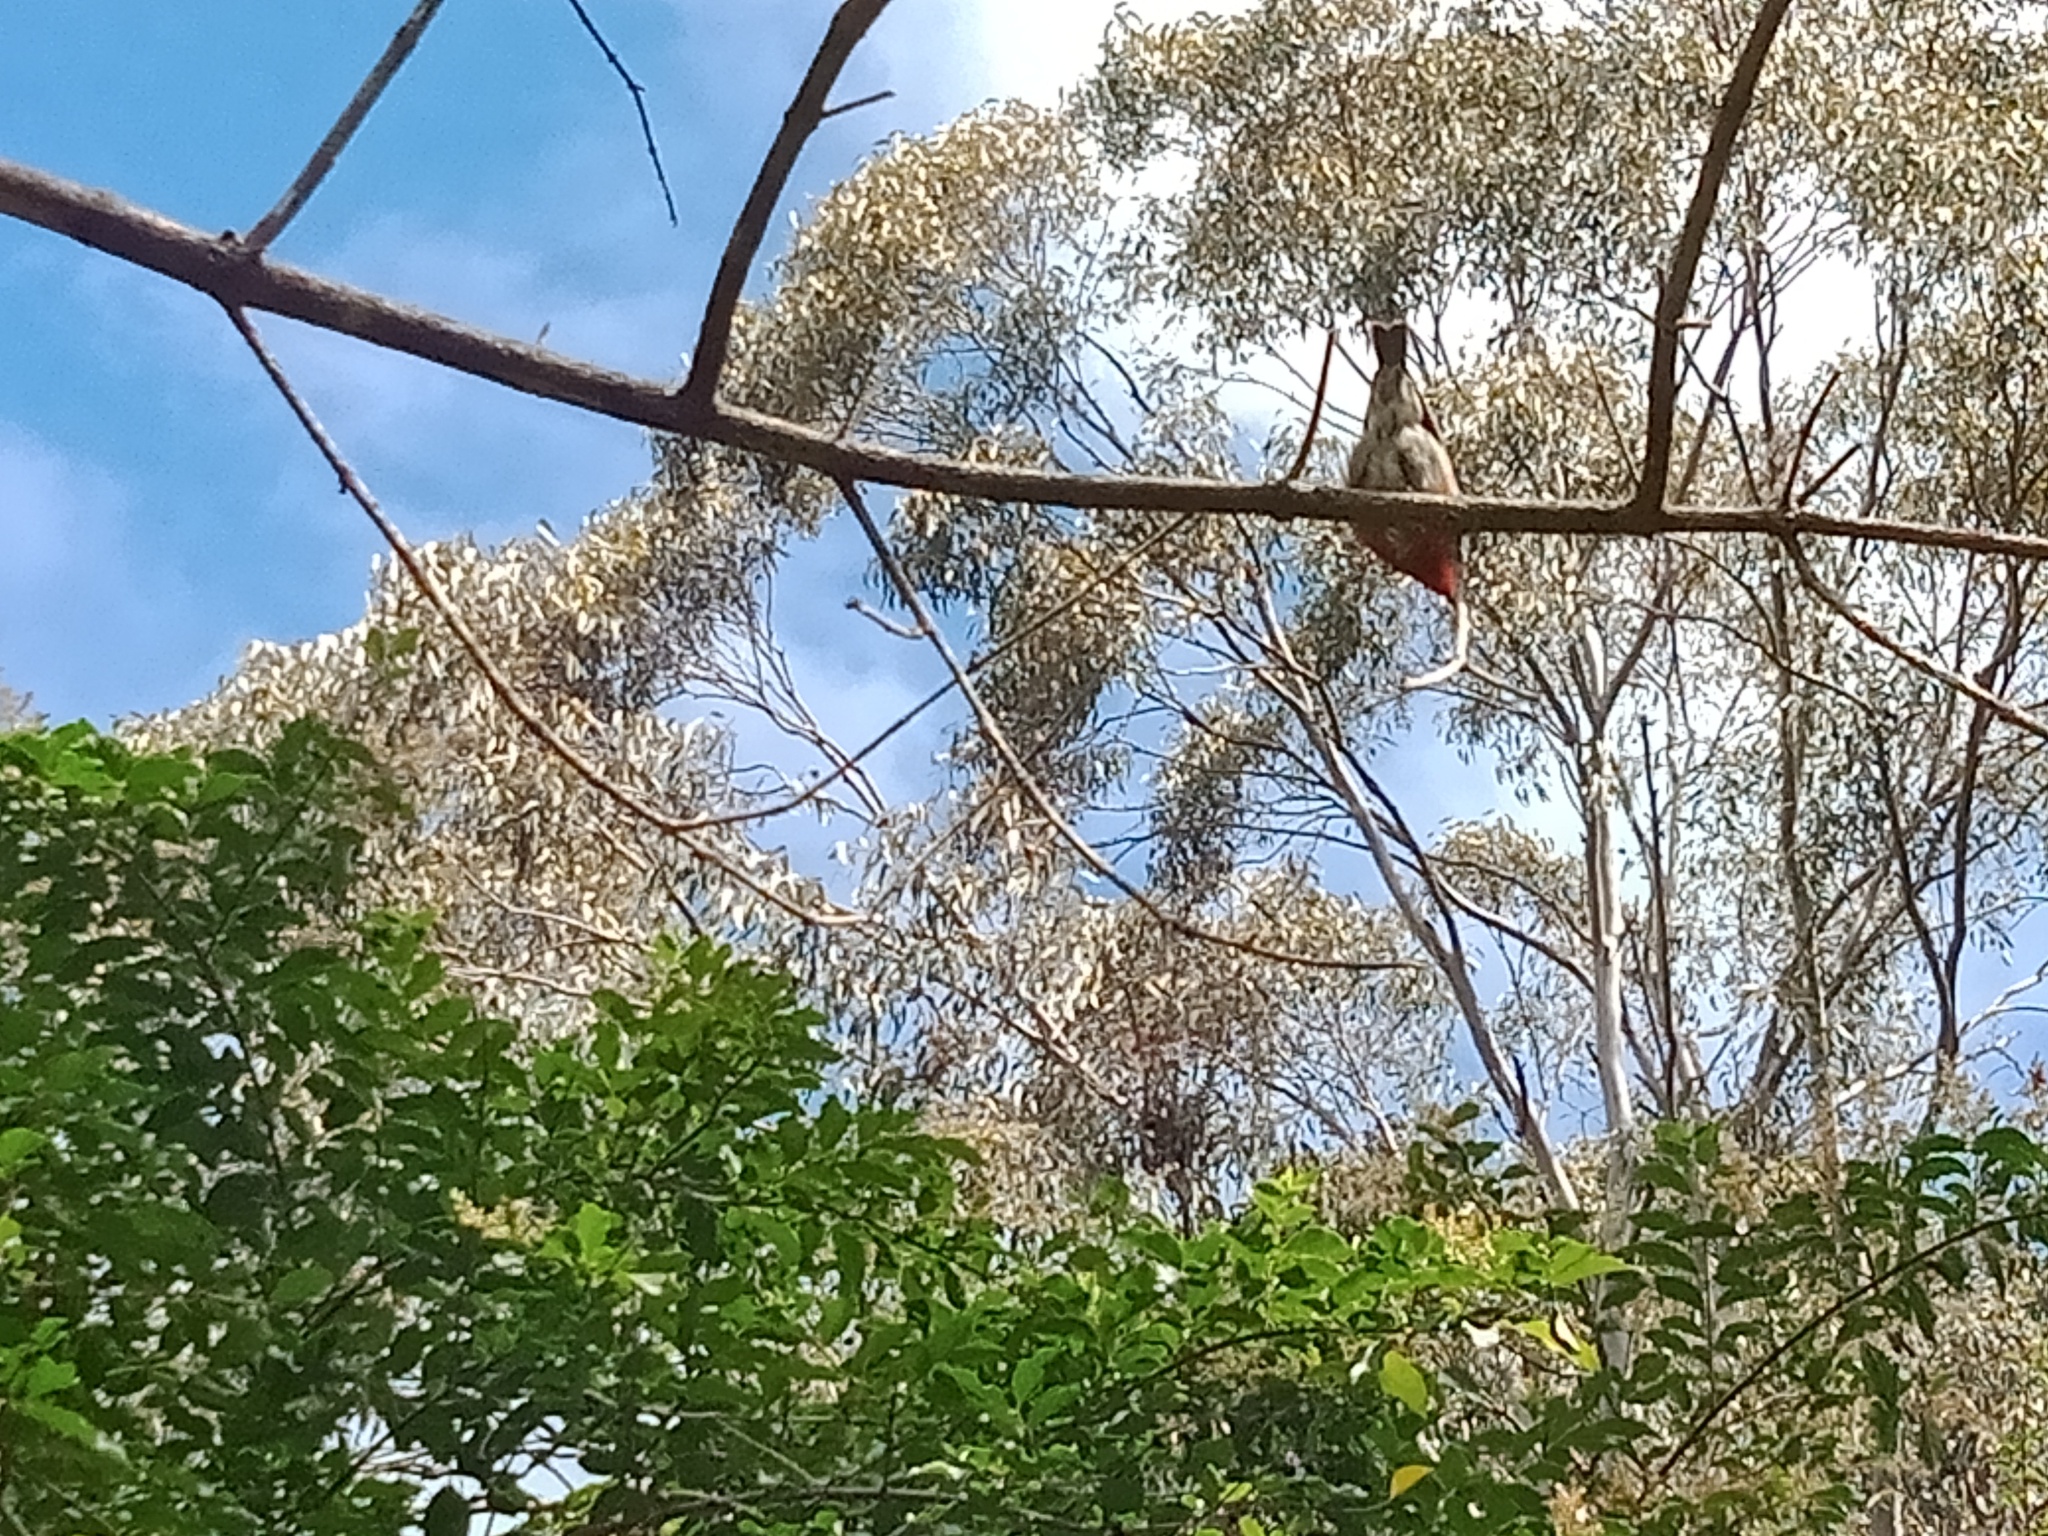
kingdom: Animalia
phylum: Chordata
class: Aves
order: Passeriformes
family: Meliphagidae
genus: Myzomela
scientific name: Myzomela sanguinolenta
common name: Scarlet myzomela
